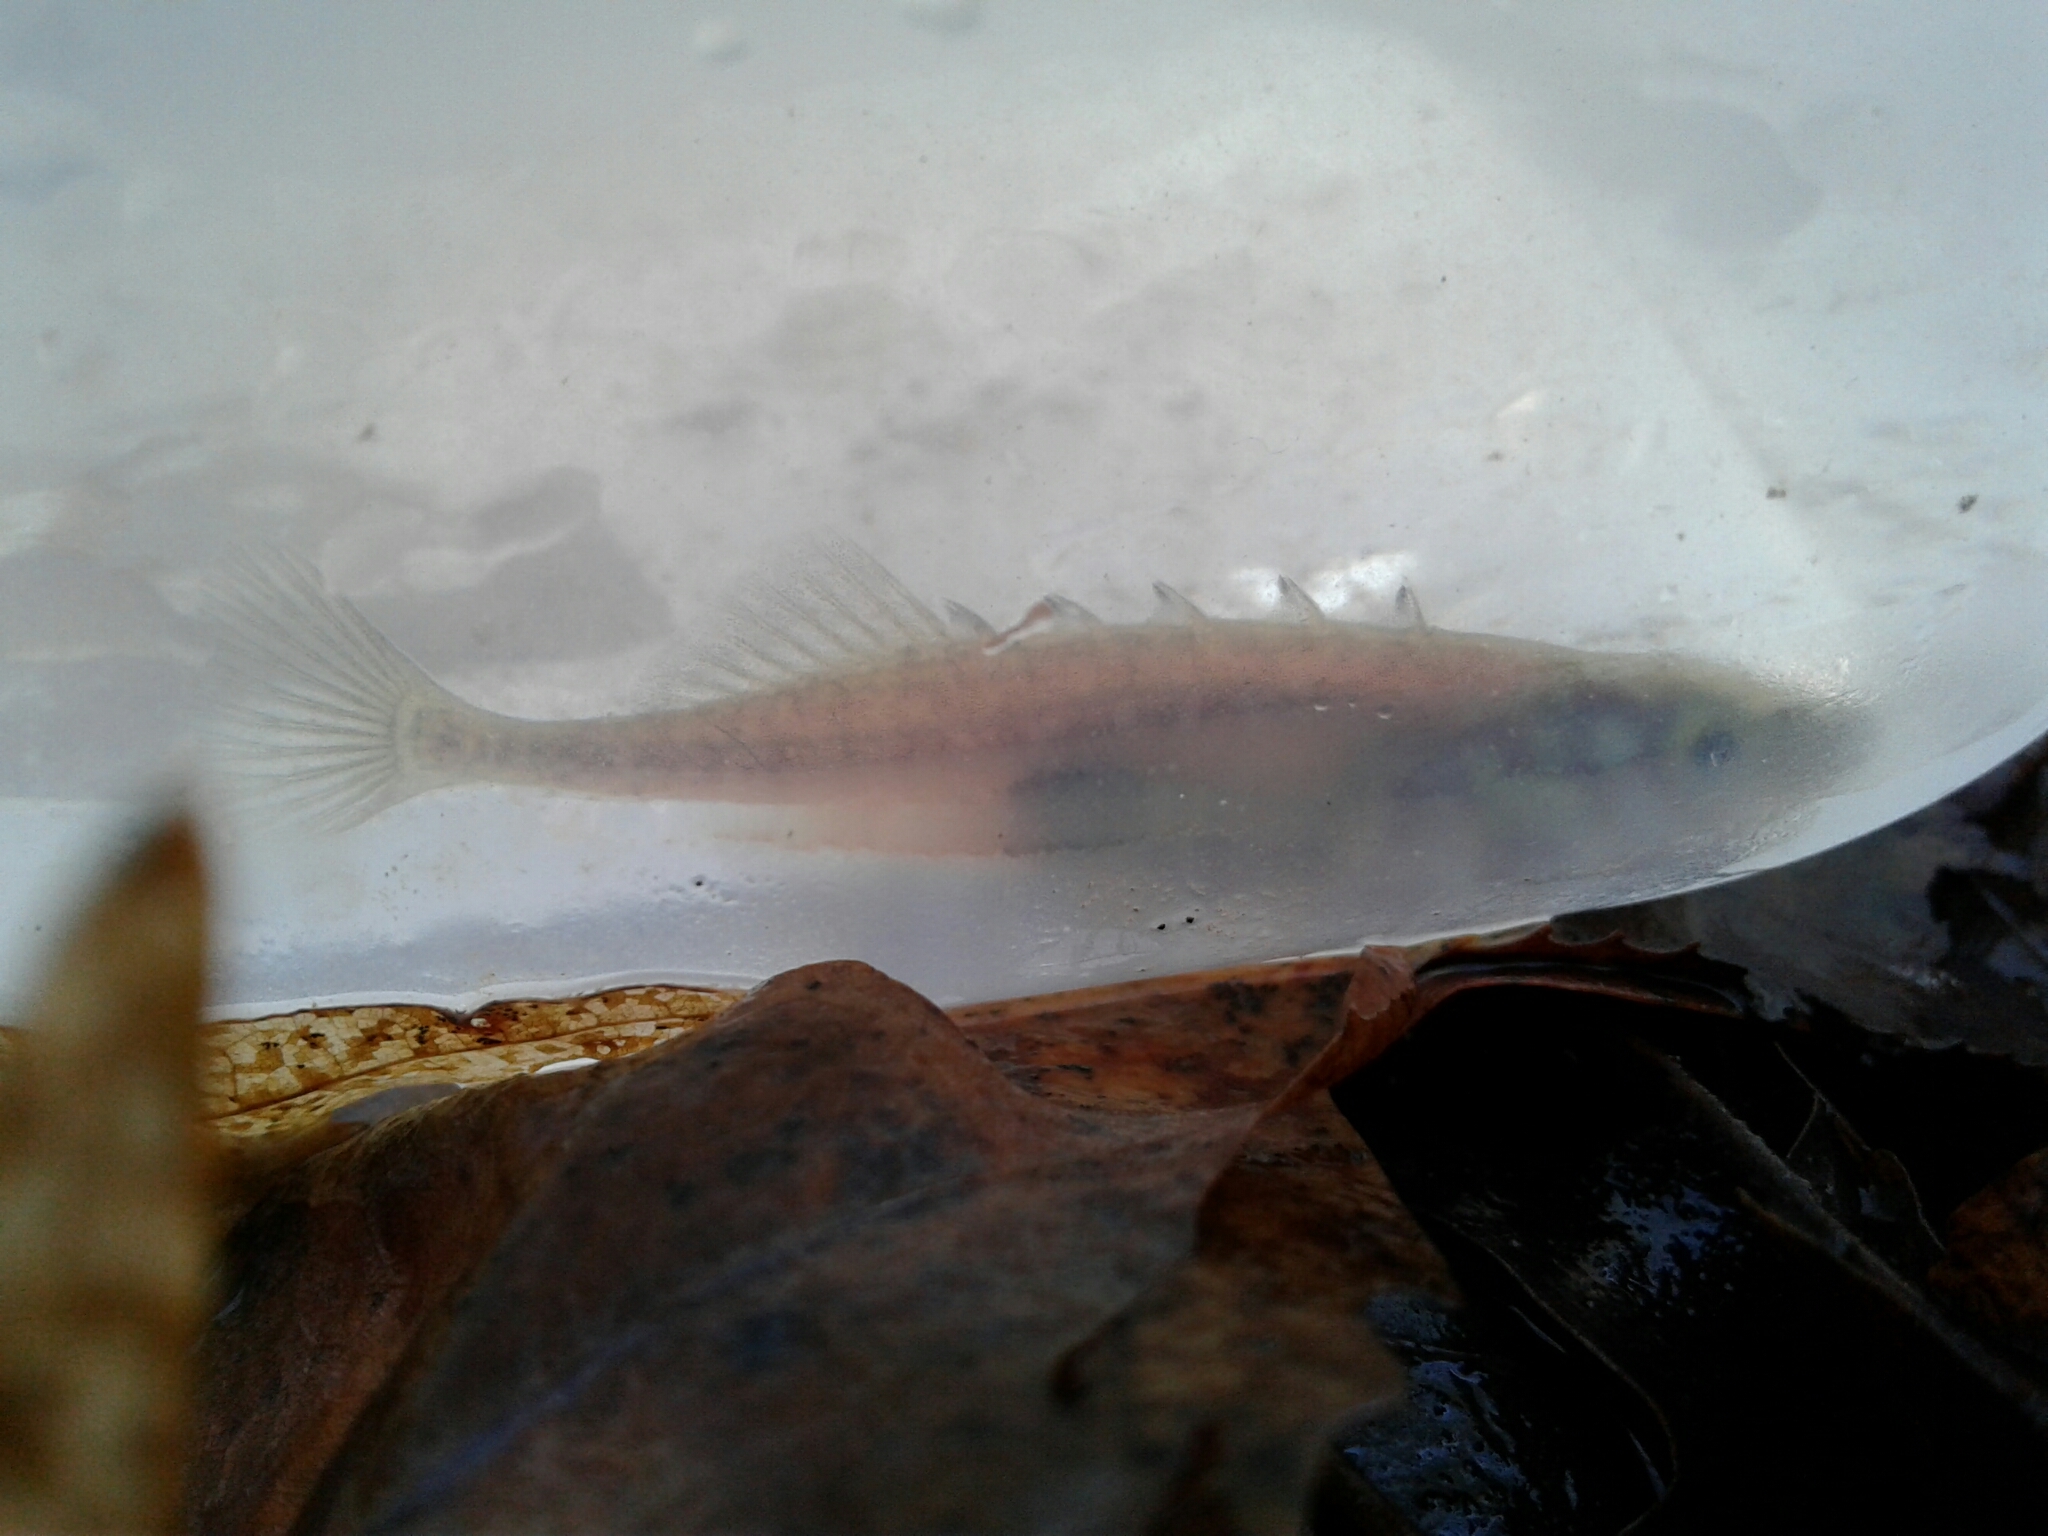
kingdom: Animalia
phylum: Chordata
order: Gasterosteiformes
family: Gasterosteidae
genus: Culaea
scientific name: Culaea inconstans
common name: Brook stickleback
